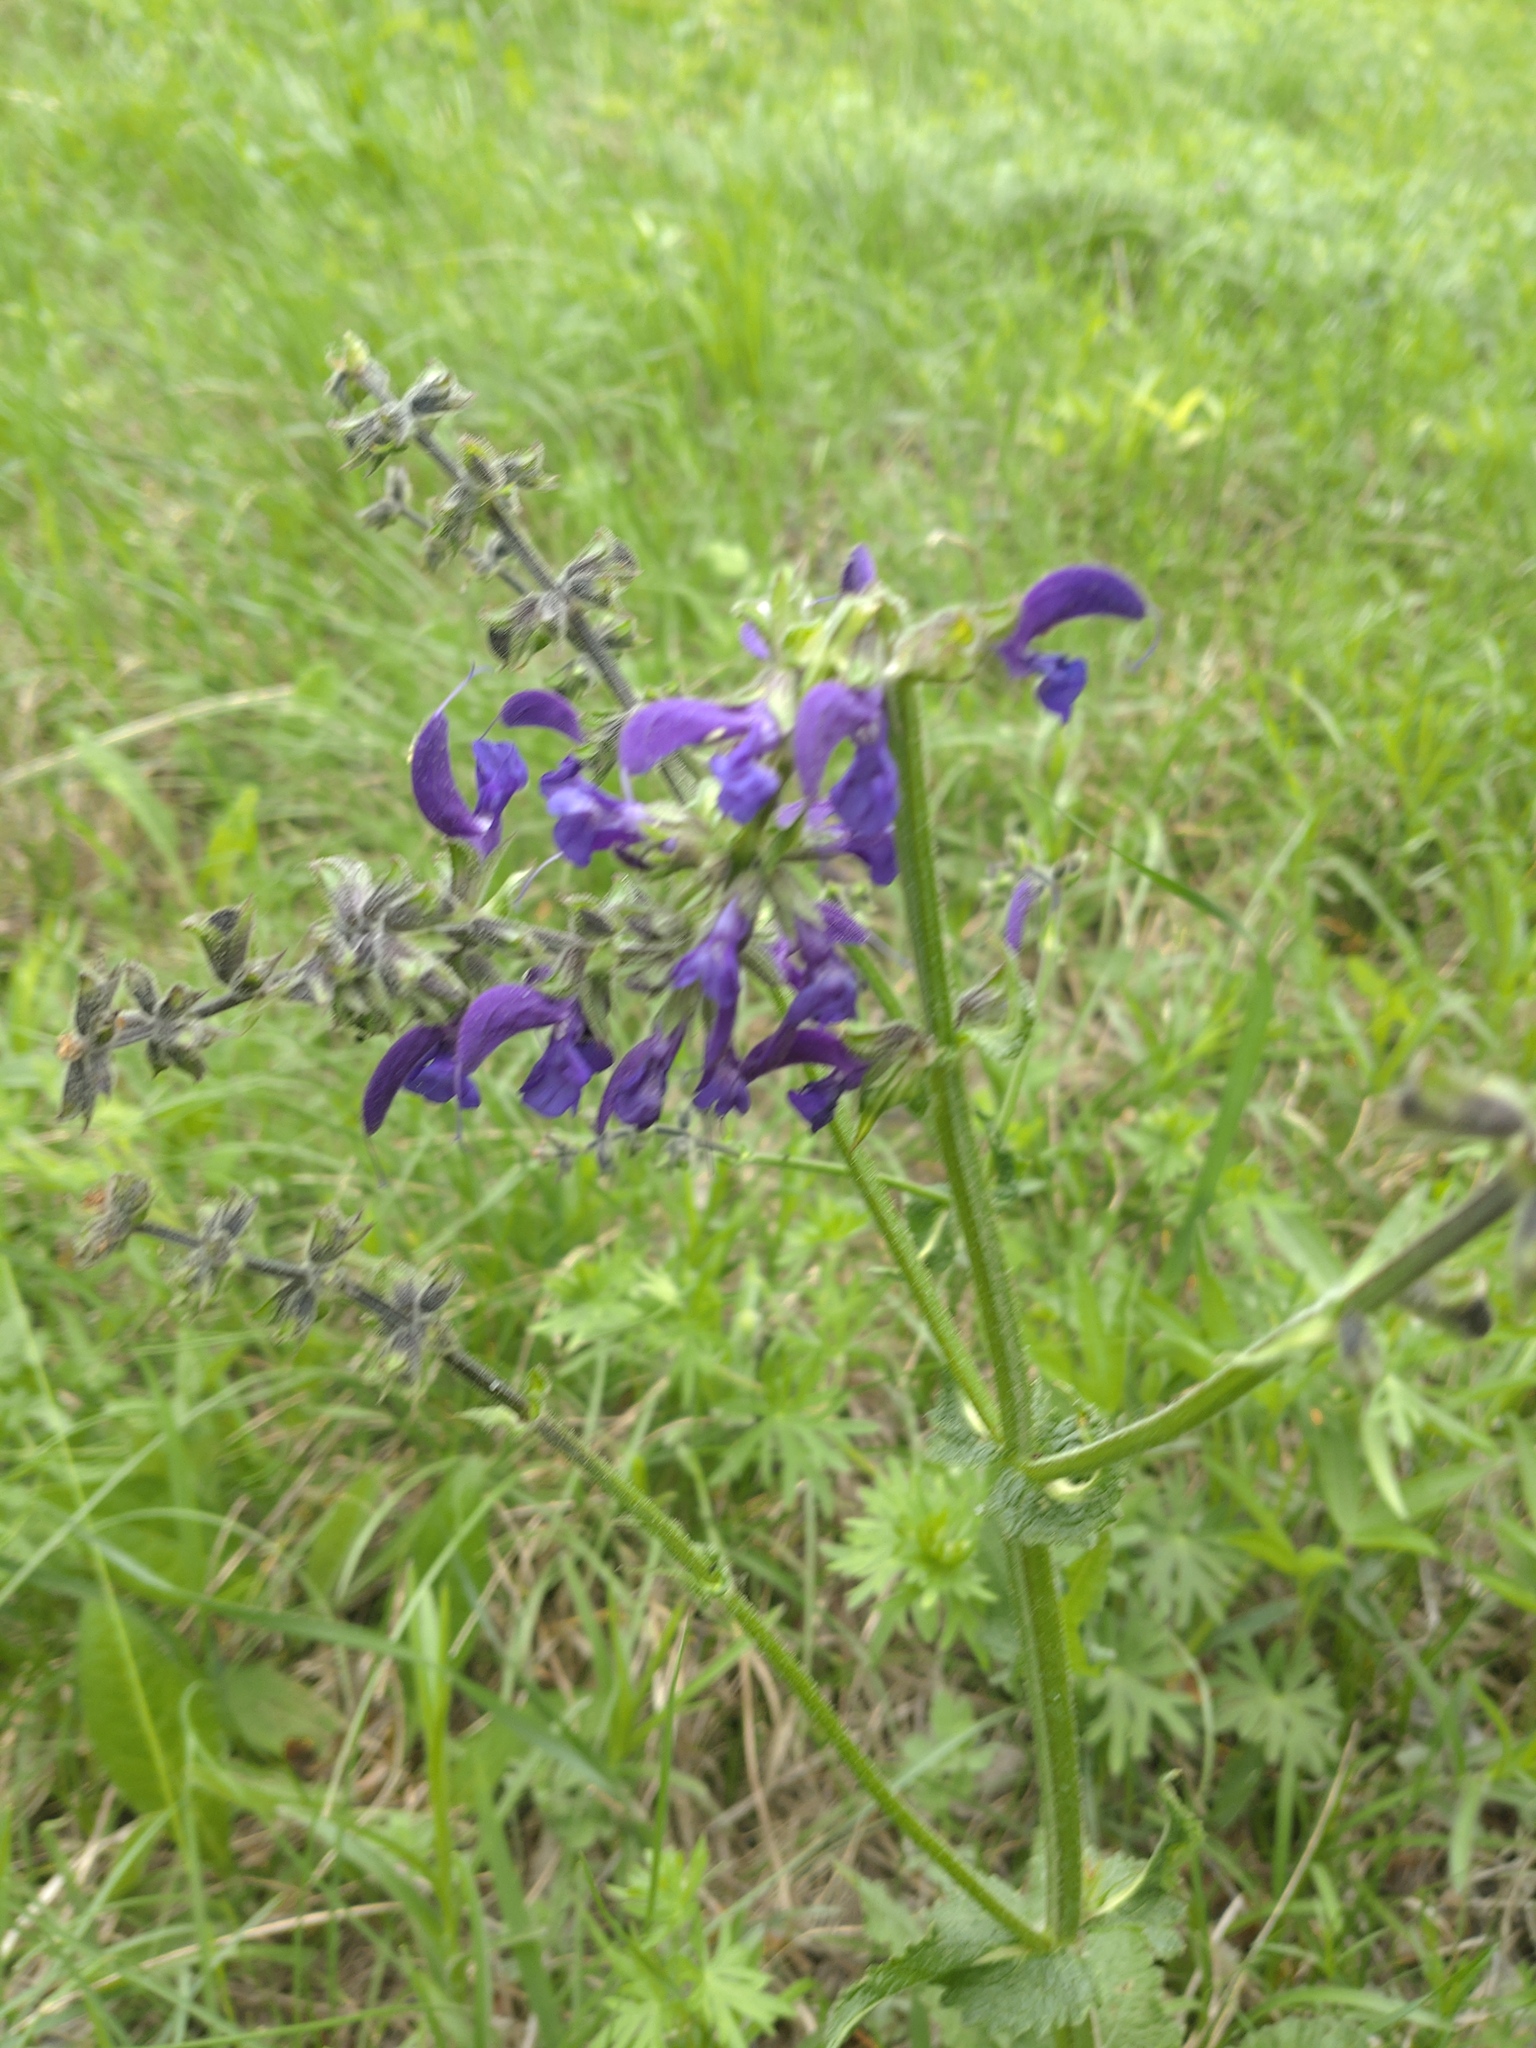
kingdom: Plantae
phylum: Tracheophyta
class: Magnoliopsida
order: Lamiales
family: Lamiaceae
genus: Salvia
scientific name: Salvia pratensis
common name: Meadow sage
